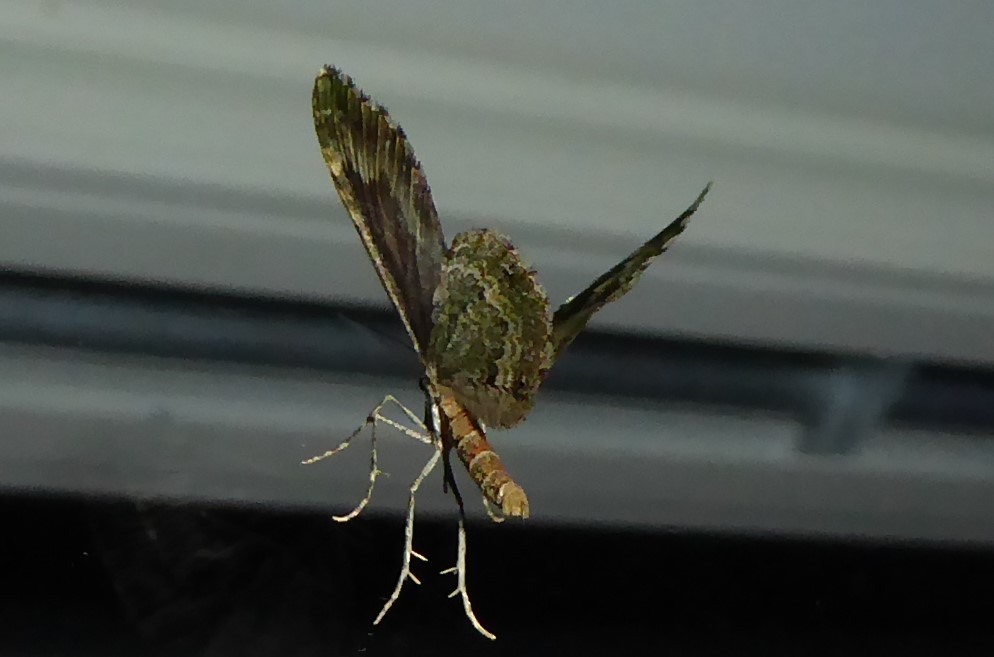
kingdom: Animalia
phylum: Arthropoda
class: Insecta
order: Lepidoptera
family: Geometridae
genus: Asaphodes
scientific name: Asaphodes beata
